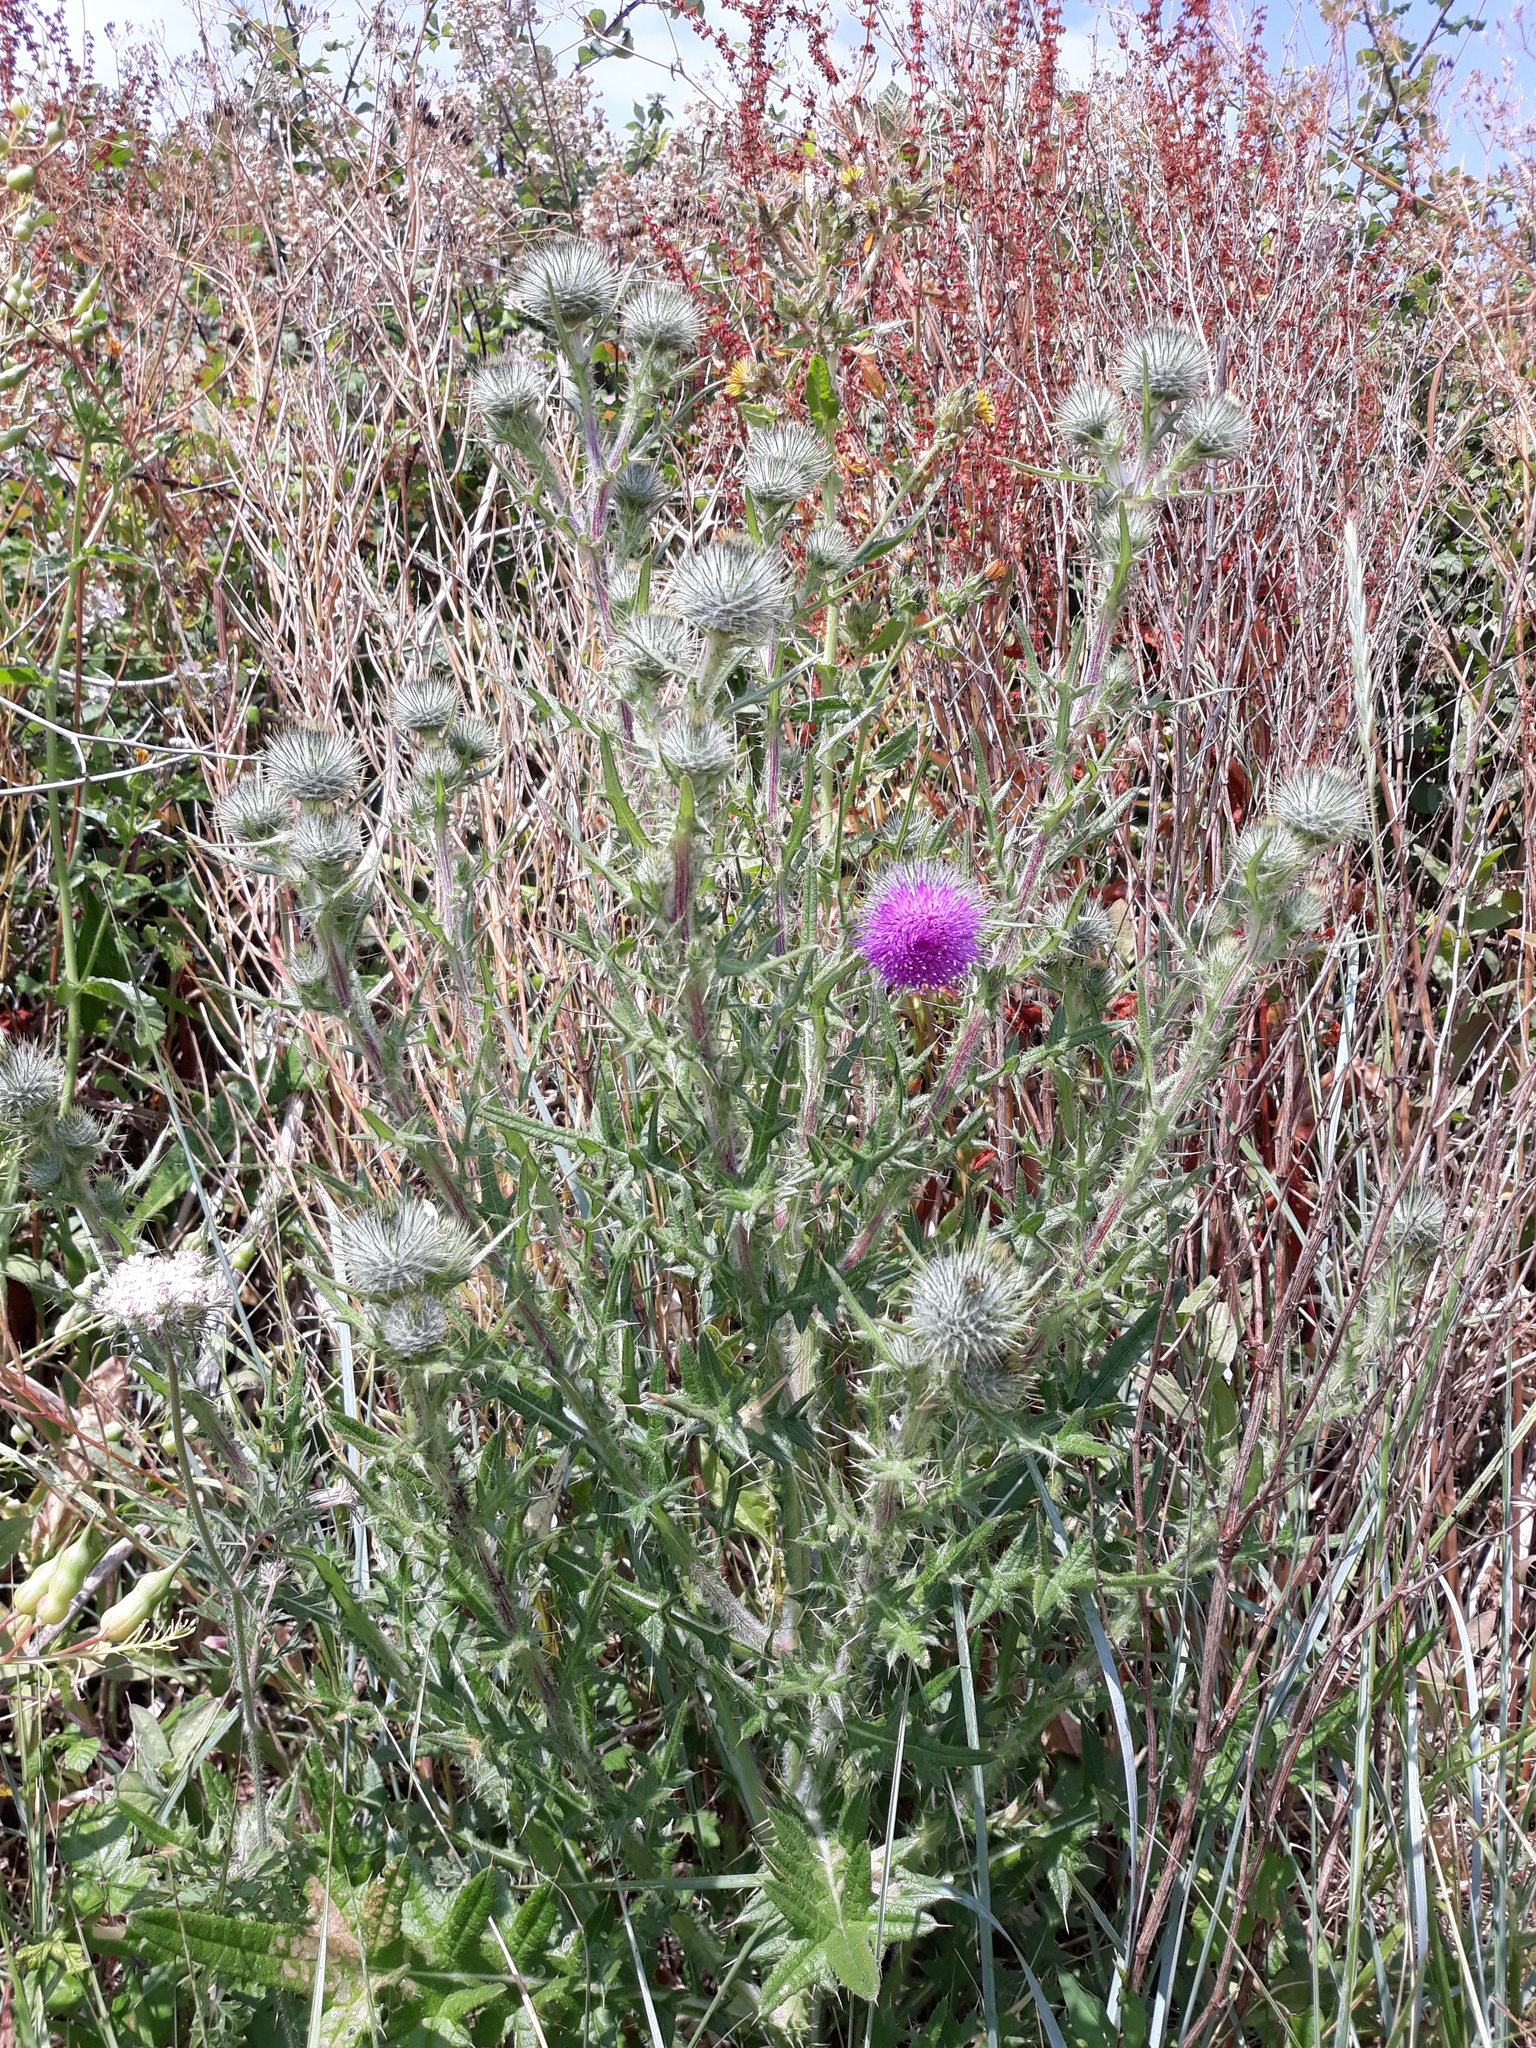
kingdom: Plantae
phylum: Tracheophyta
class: Magnoliopsida
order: Asterales
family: Asteraceae
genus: Cirsium
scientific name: Cirsium vulgare
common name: Bull thistle
